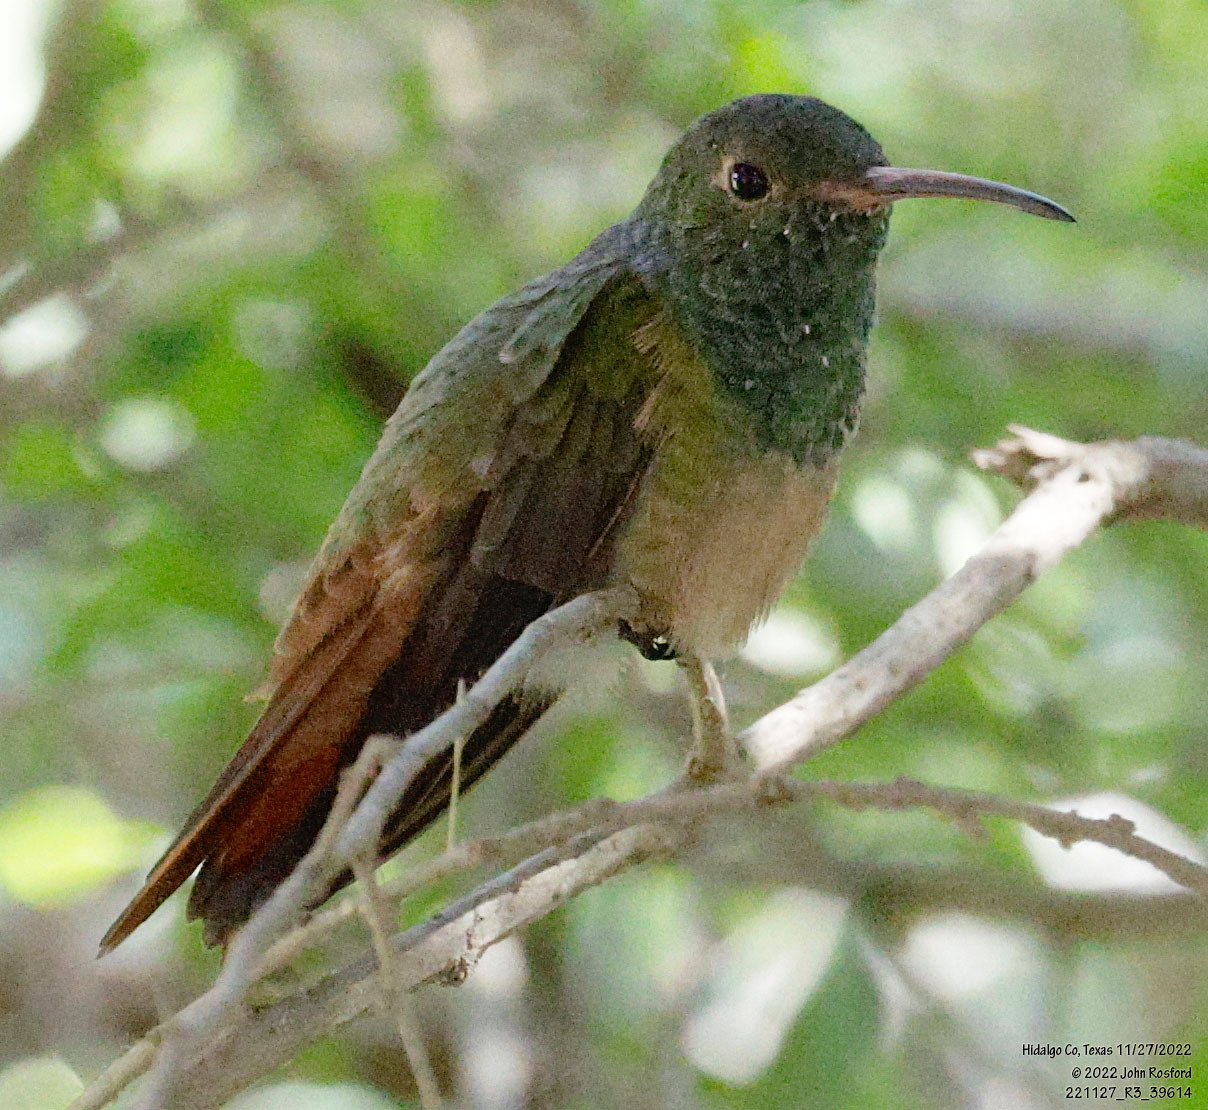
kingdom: Animalia
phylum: Chordata
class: Aves
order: Apodiformes
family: Trochilidae
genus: Amazilia
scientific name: Amazilia yucatanensis
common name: Buff-bellied hummingbird
